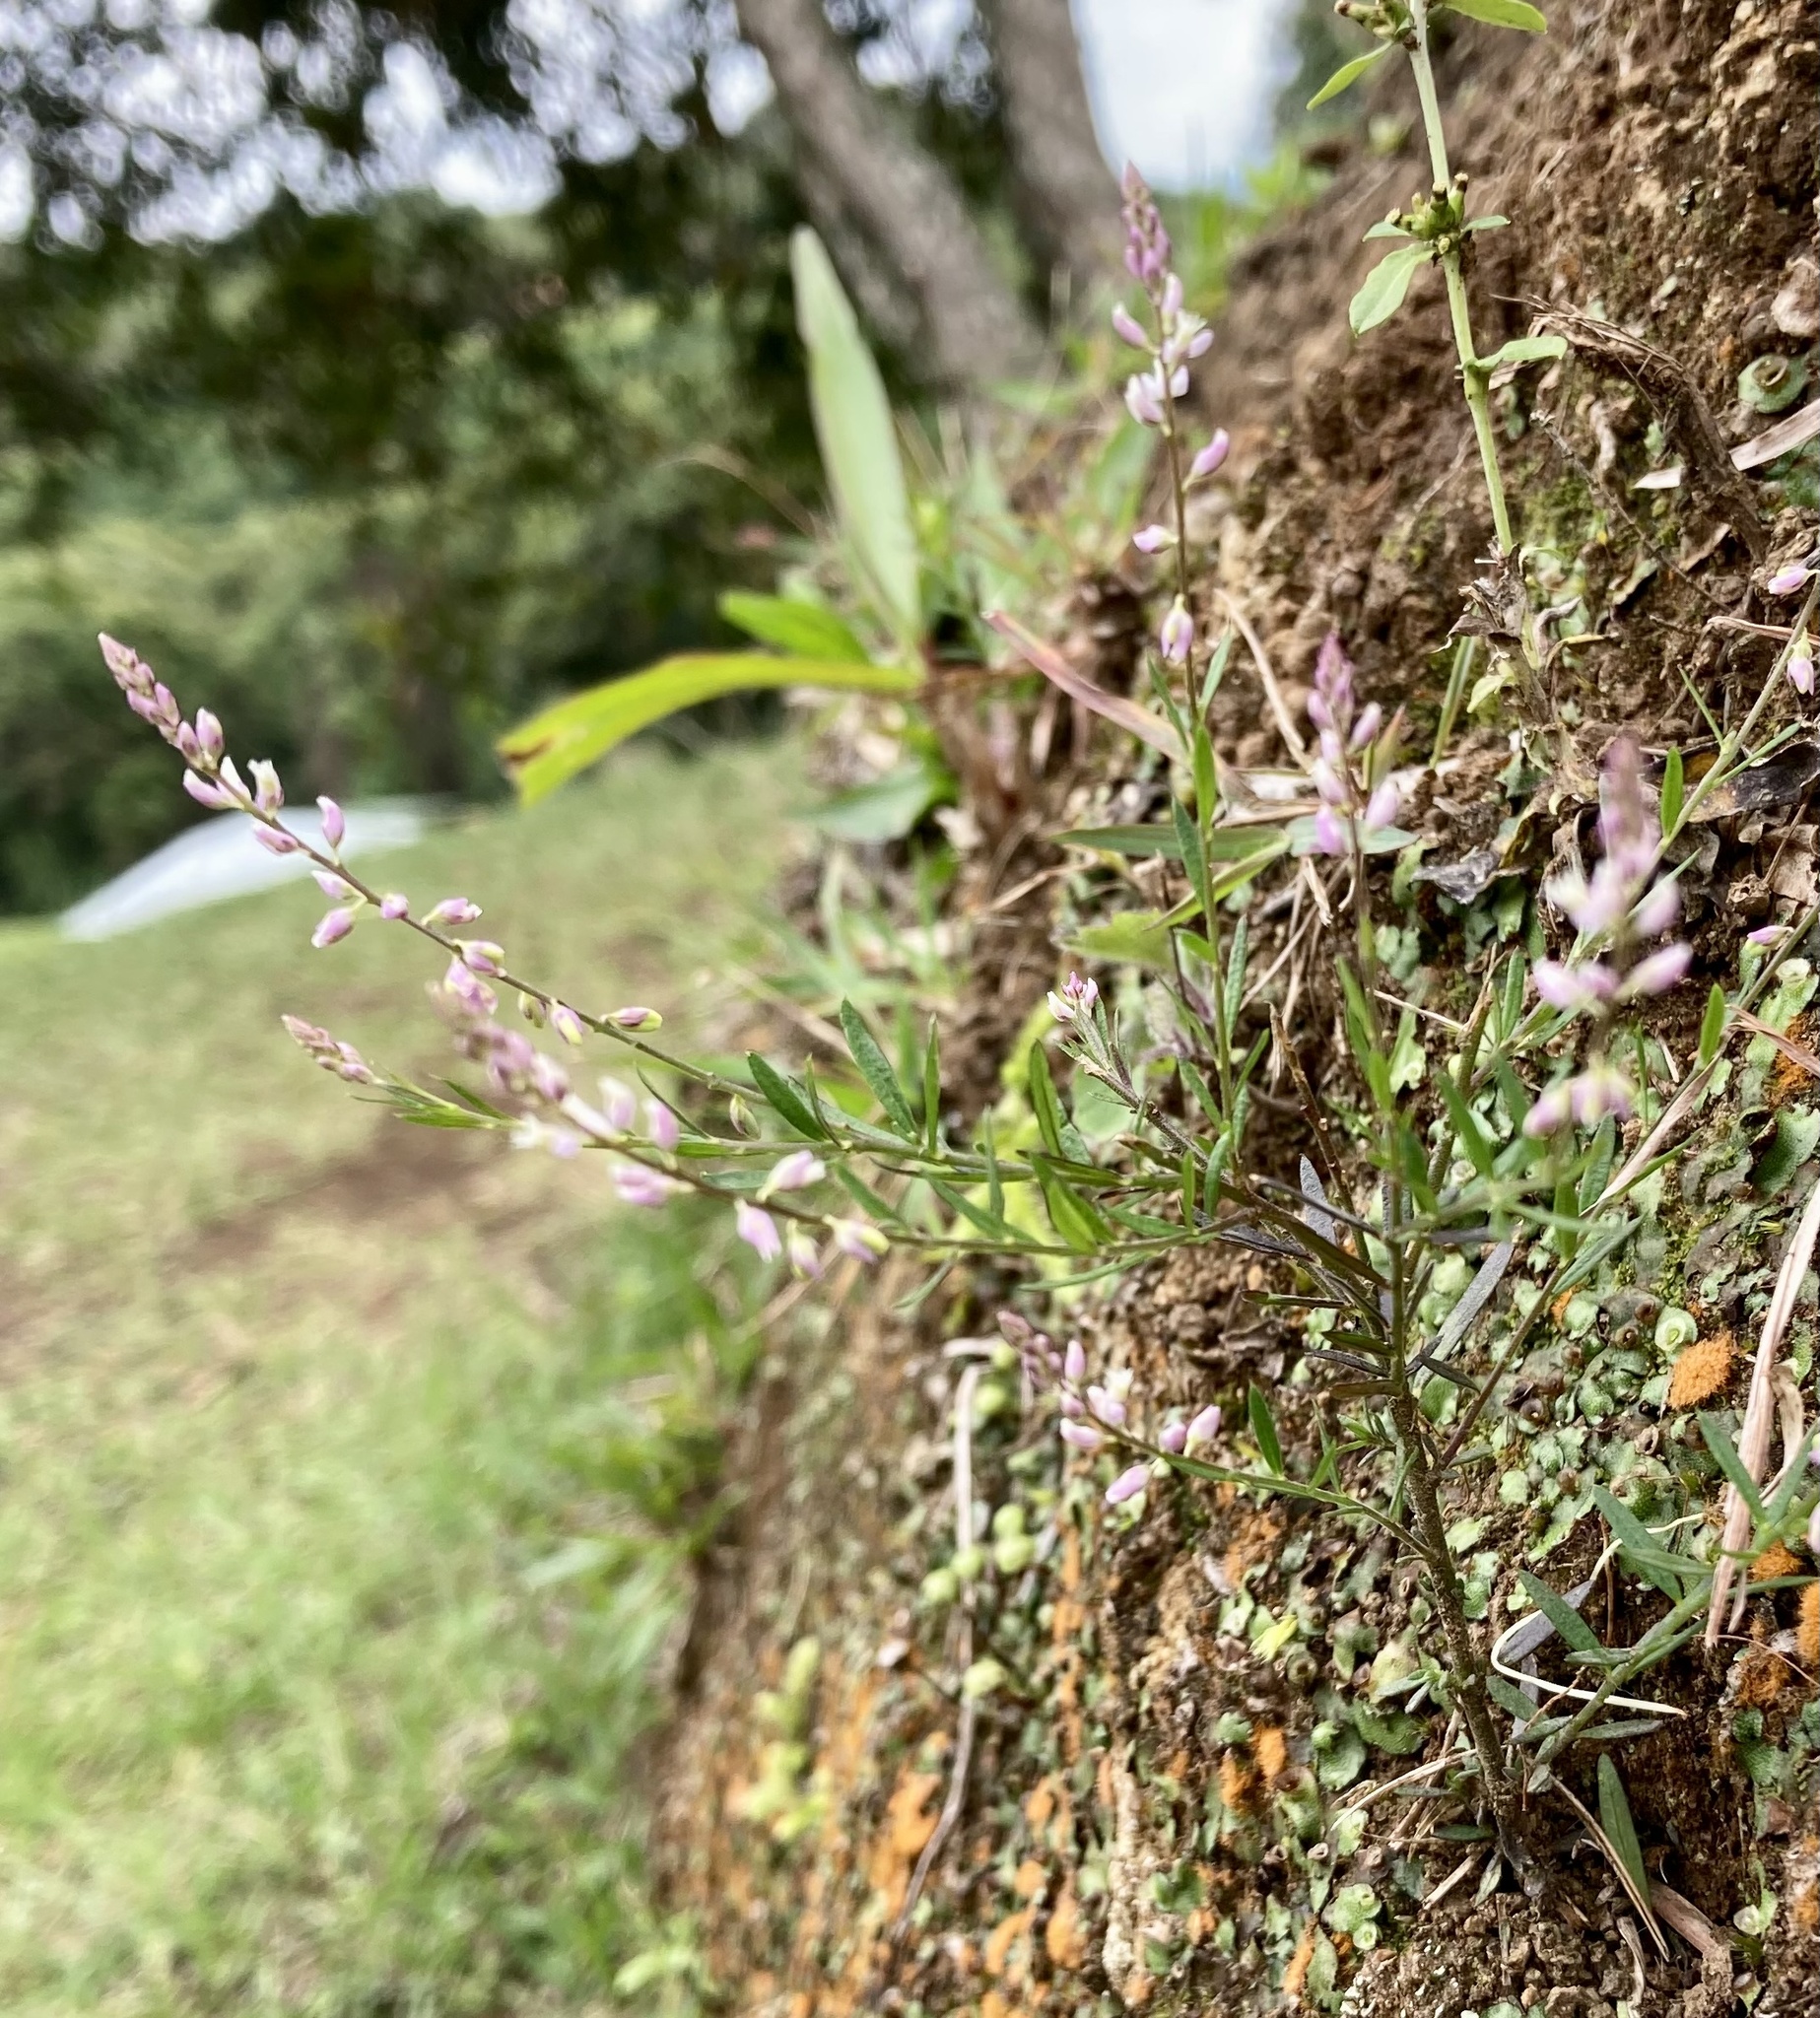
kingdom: Plantae
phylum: Tracheophyta
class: Magnoliopsida
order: Fabales
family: Polygalaceae
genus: Polygala
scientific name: Polygala paniculata
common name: Orosne
